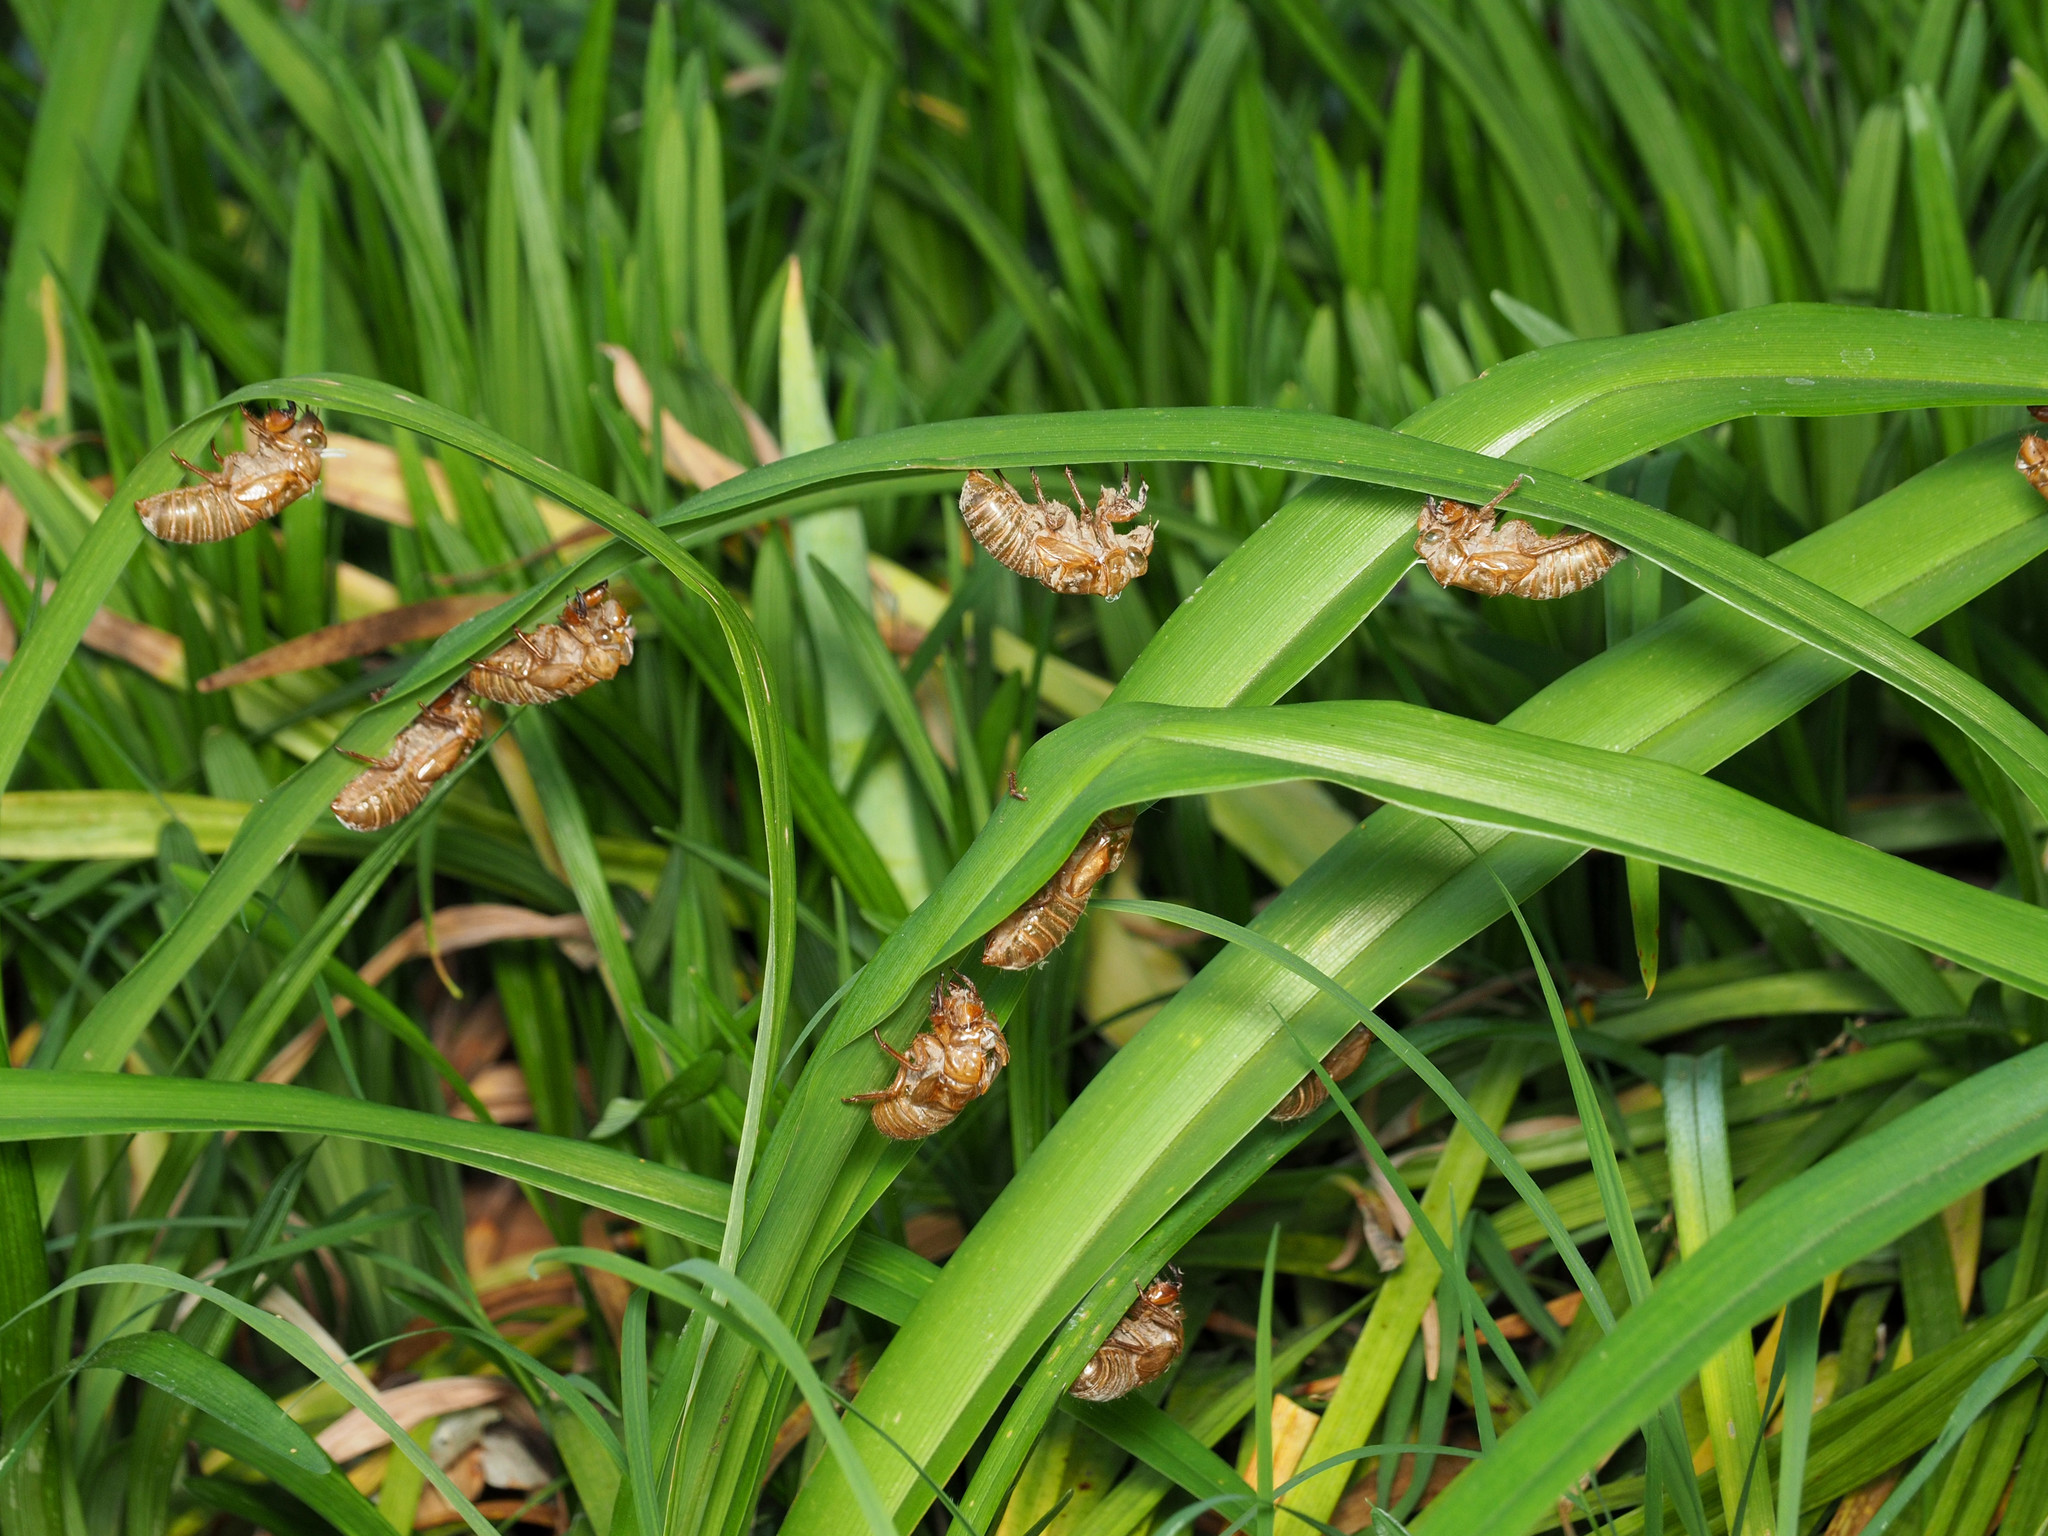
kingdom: Animalia
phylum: Arthropoda
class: Insecta
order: Hemiptera
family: Cicadidae
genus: Magicicada
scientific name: Magicicada
